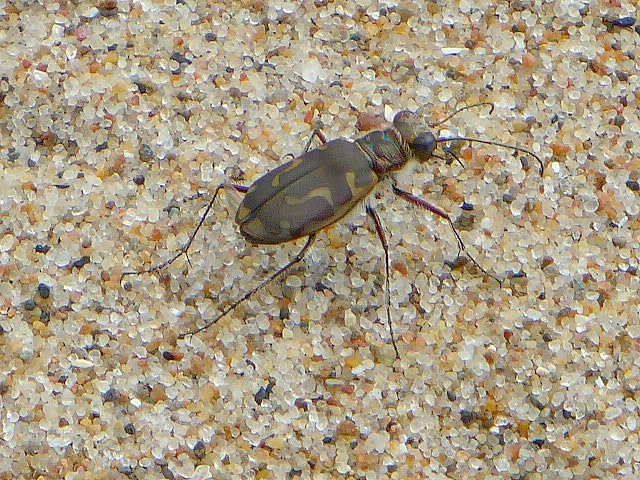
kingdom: Animalia
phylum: Arthropoda
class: Insecta
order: Coleoptera
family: Carabidae
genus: Cicindela
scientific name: Cicindela hirticollis
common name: Hairy-necked tiger beetle
